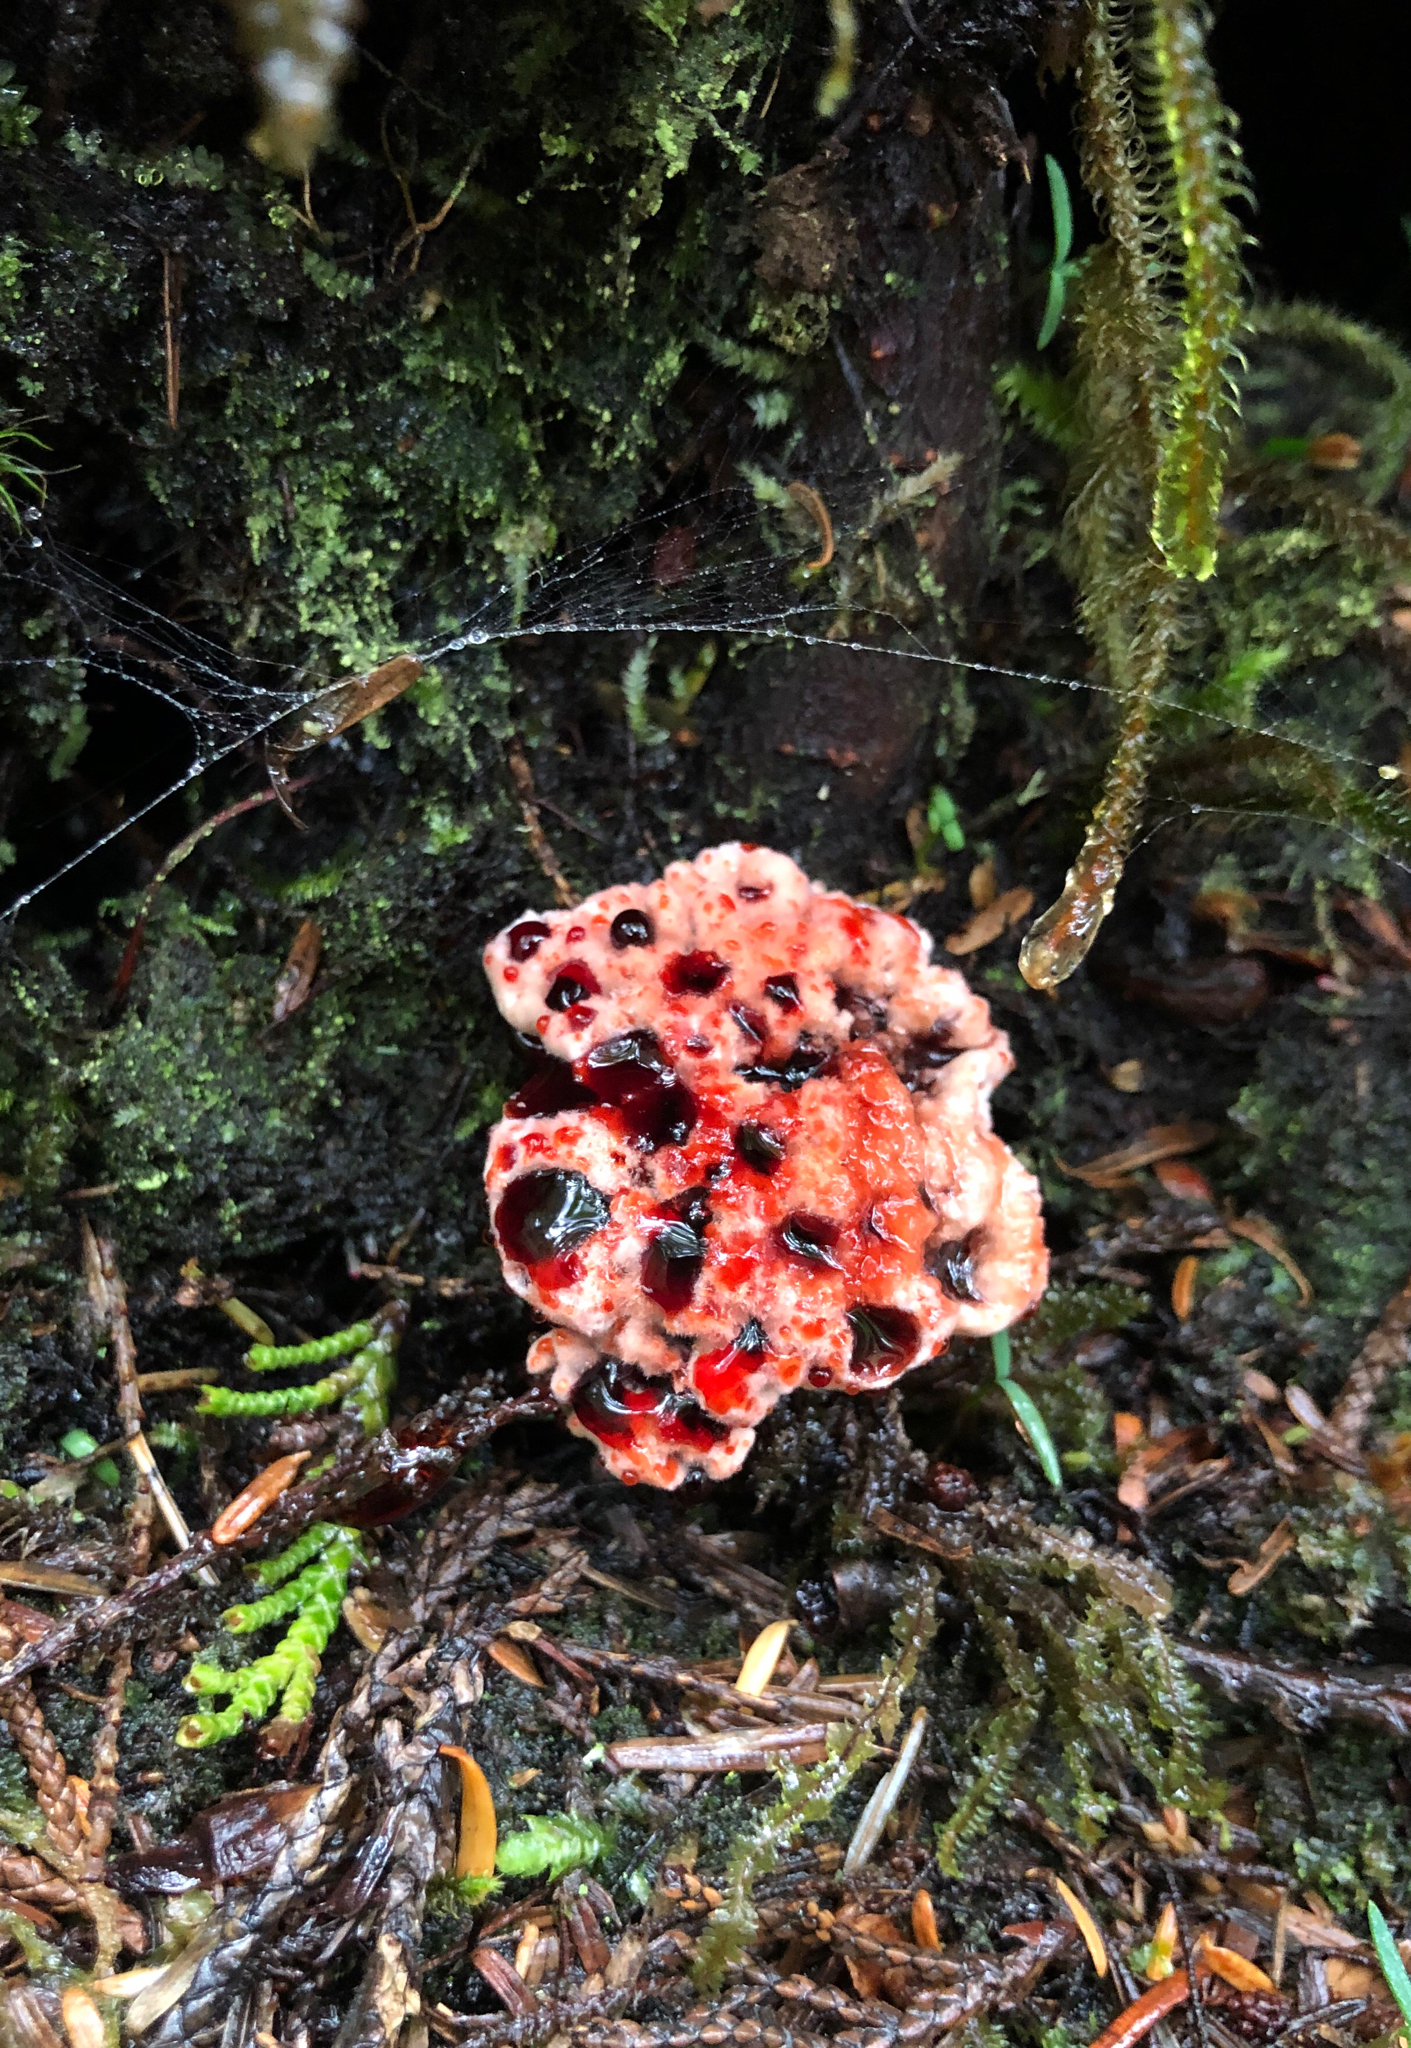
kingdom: Fungi
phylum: Basidiomycota
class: Agaricomycetes
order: Thelephorales
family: Bankeraceae
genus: Hydnellum
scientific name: Hydnellum peckii
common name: Devil's tooth
